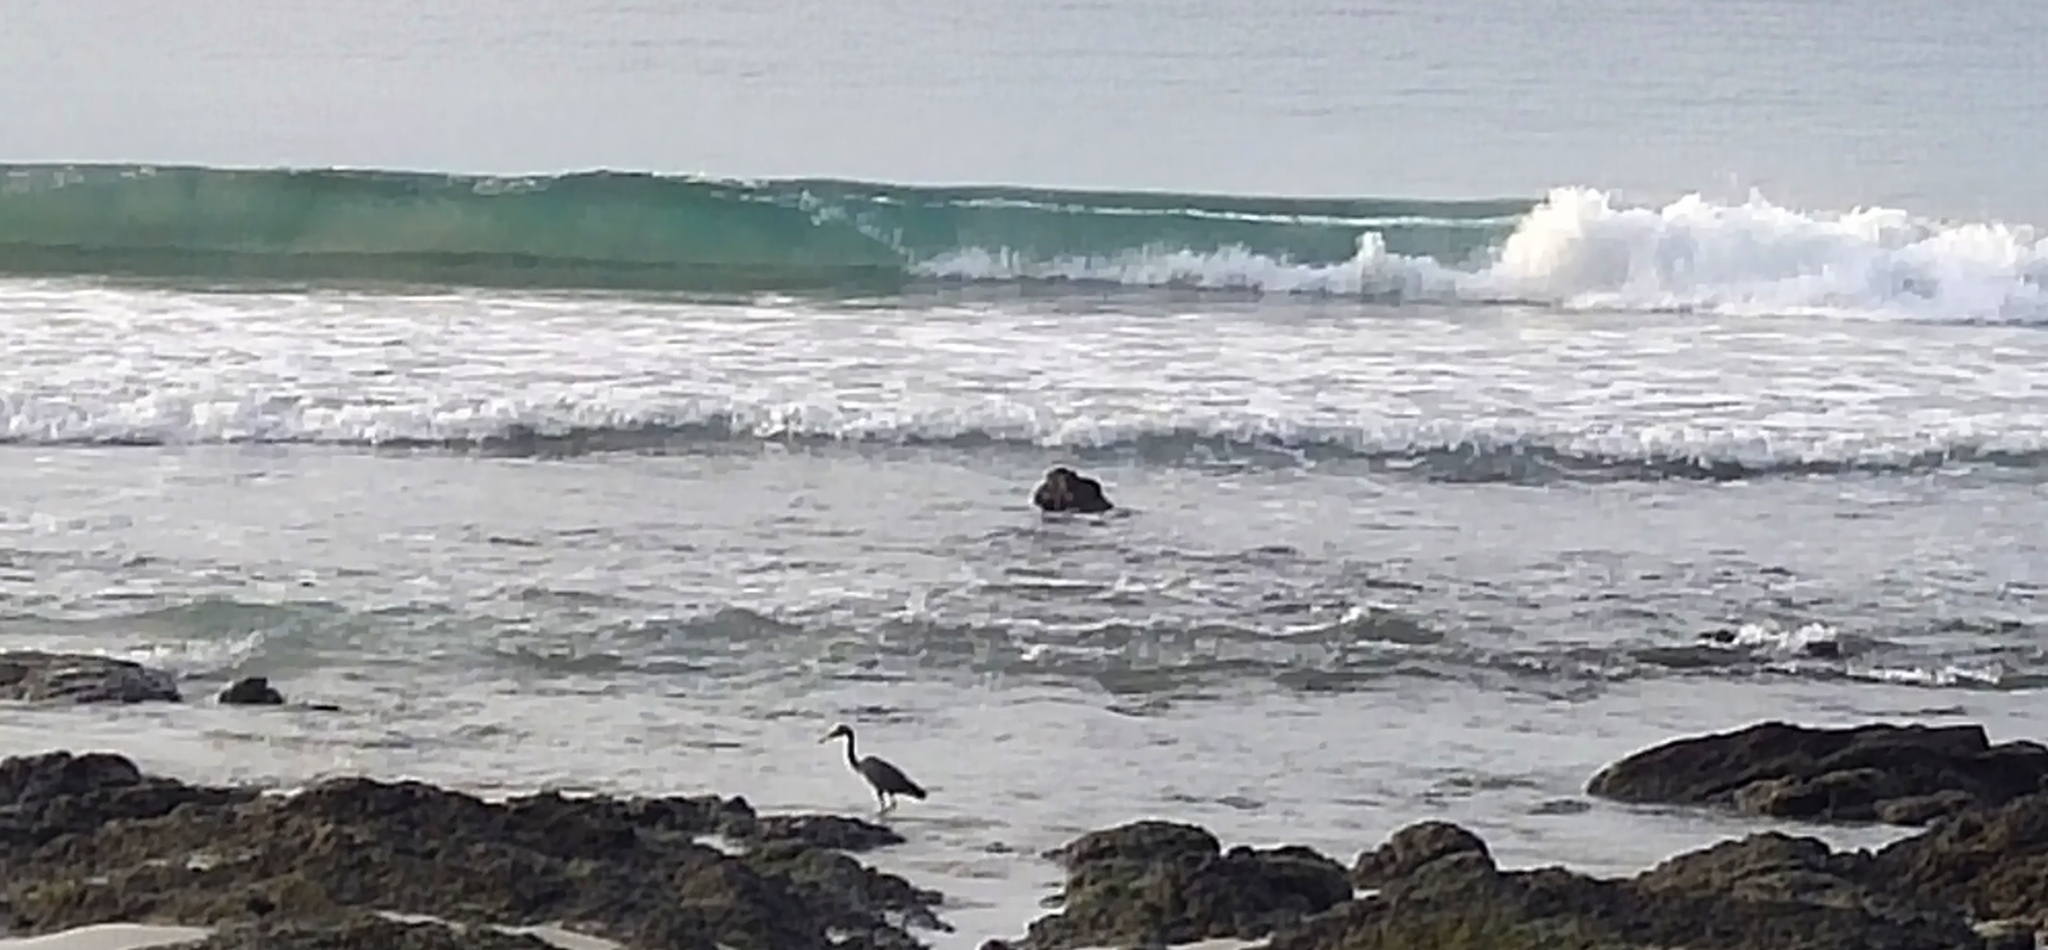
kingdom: Animalia
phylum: Chordata
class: Aves
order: Pelecaniformes
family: Ardeidae
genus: Egretta
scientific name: Egretta sacra
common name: Pacific reef heron
